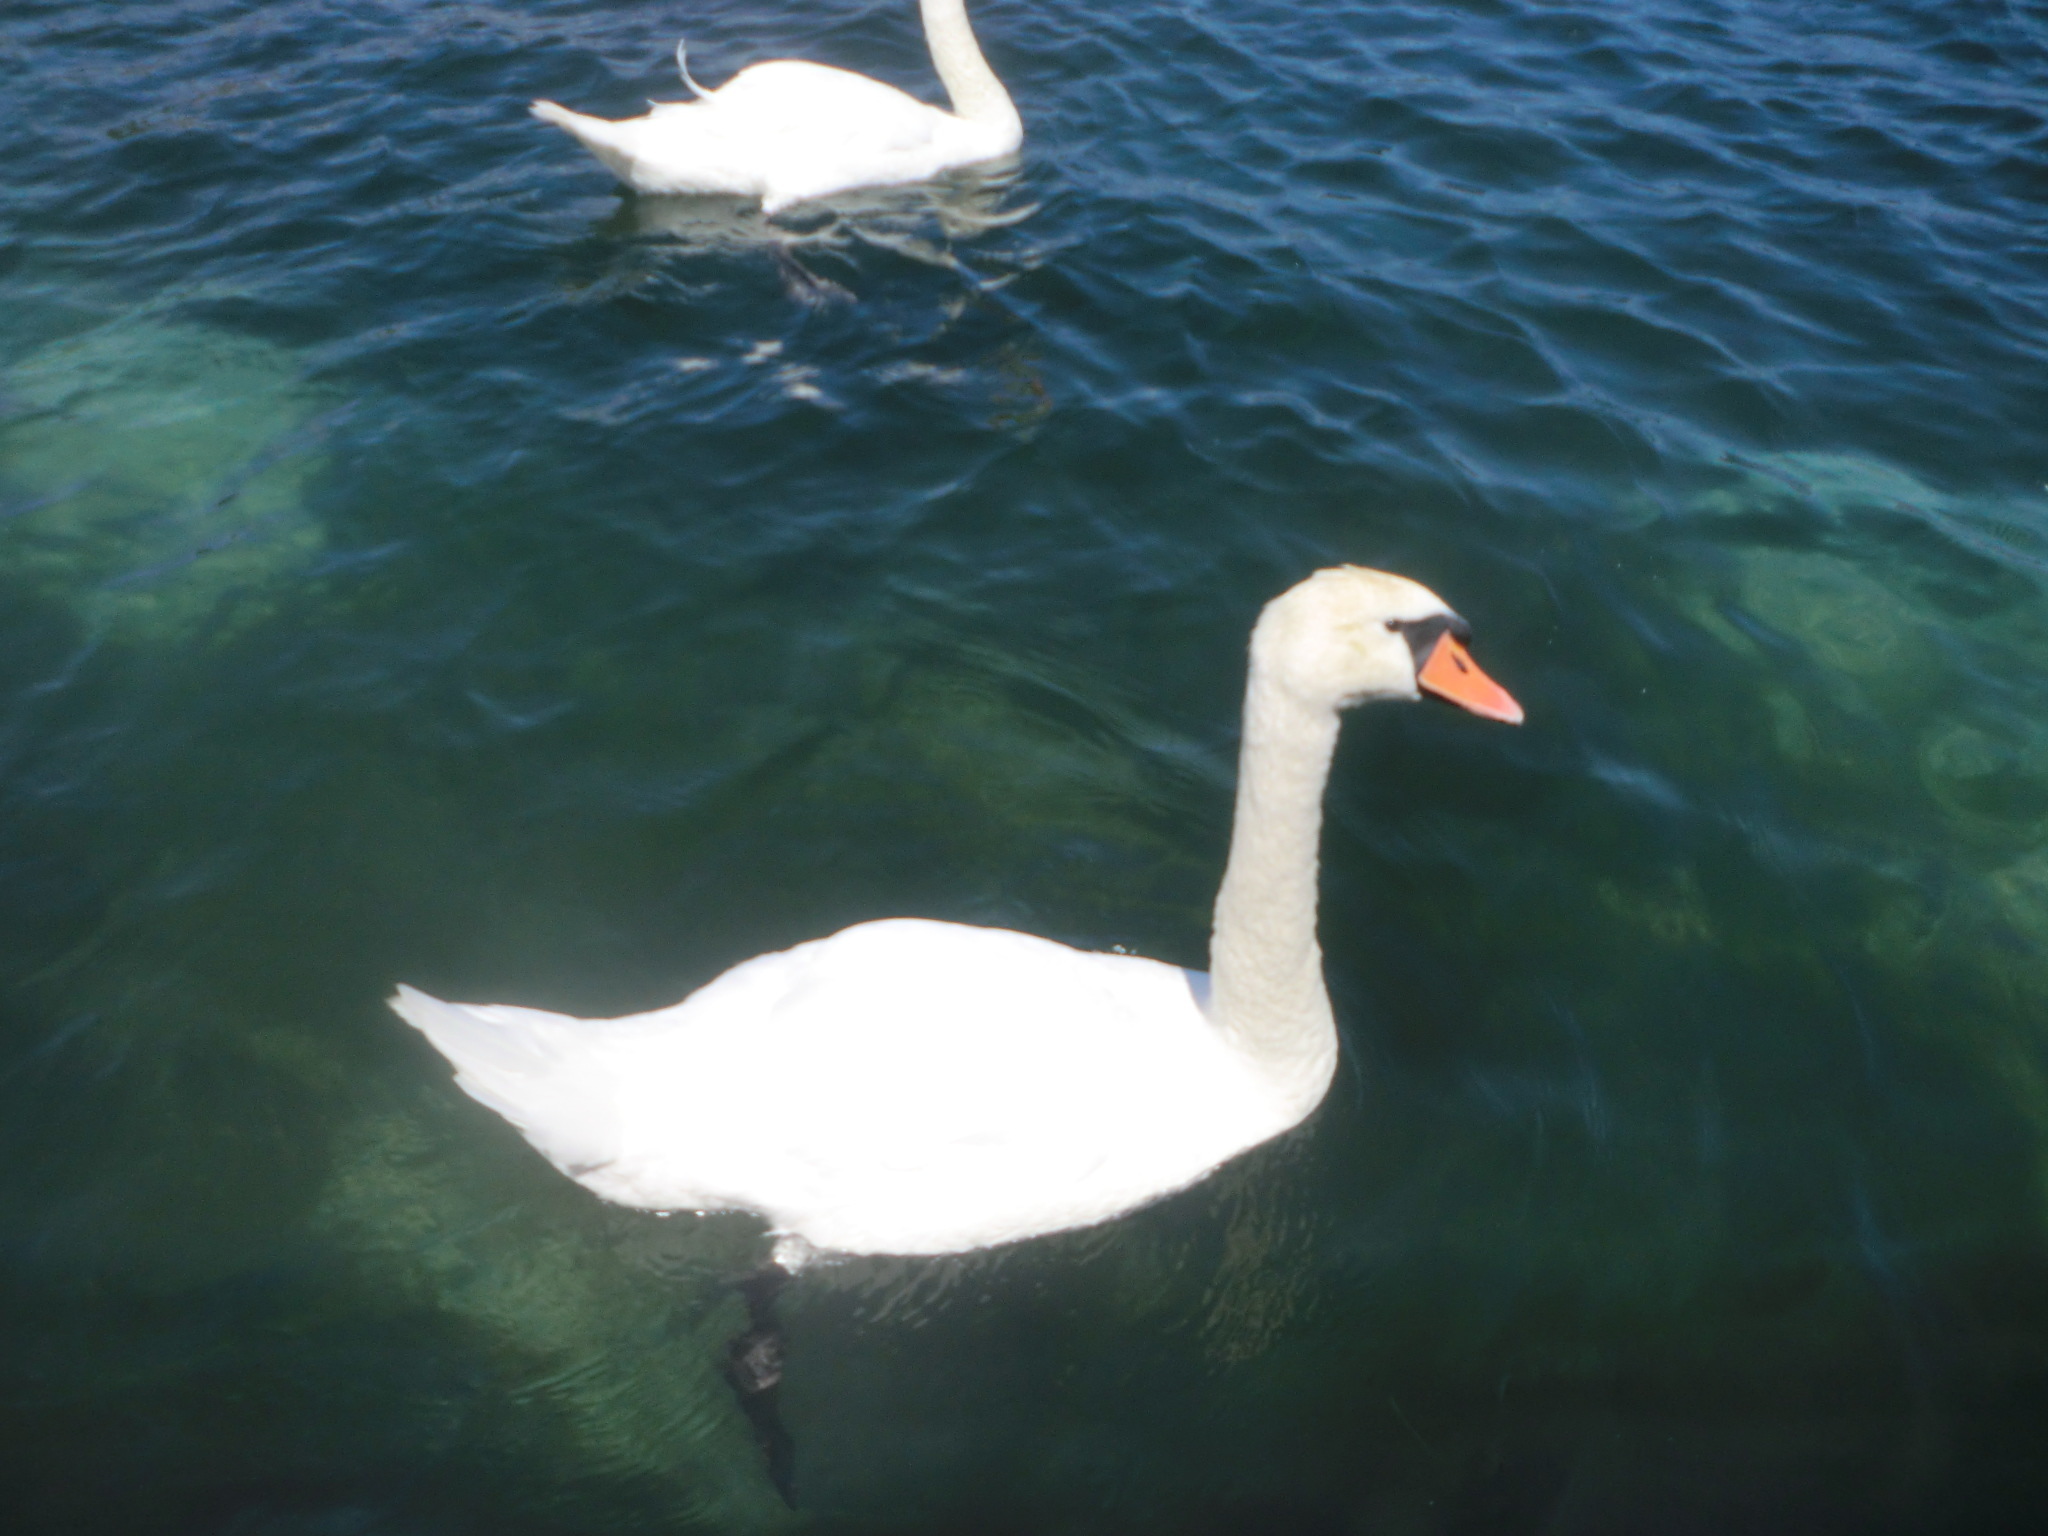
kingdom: Animalia
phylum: Chordata
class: Aves
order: Anseriformes
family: Anatidae
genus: Cygnus
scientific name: Cygnus olor
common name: Mute swan
